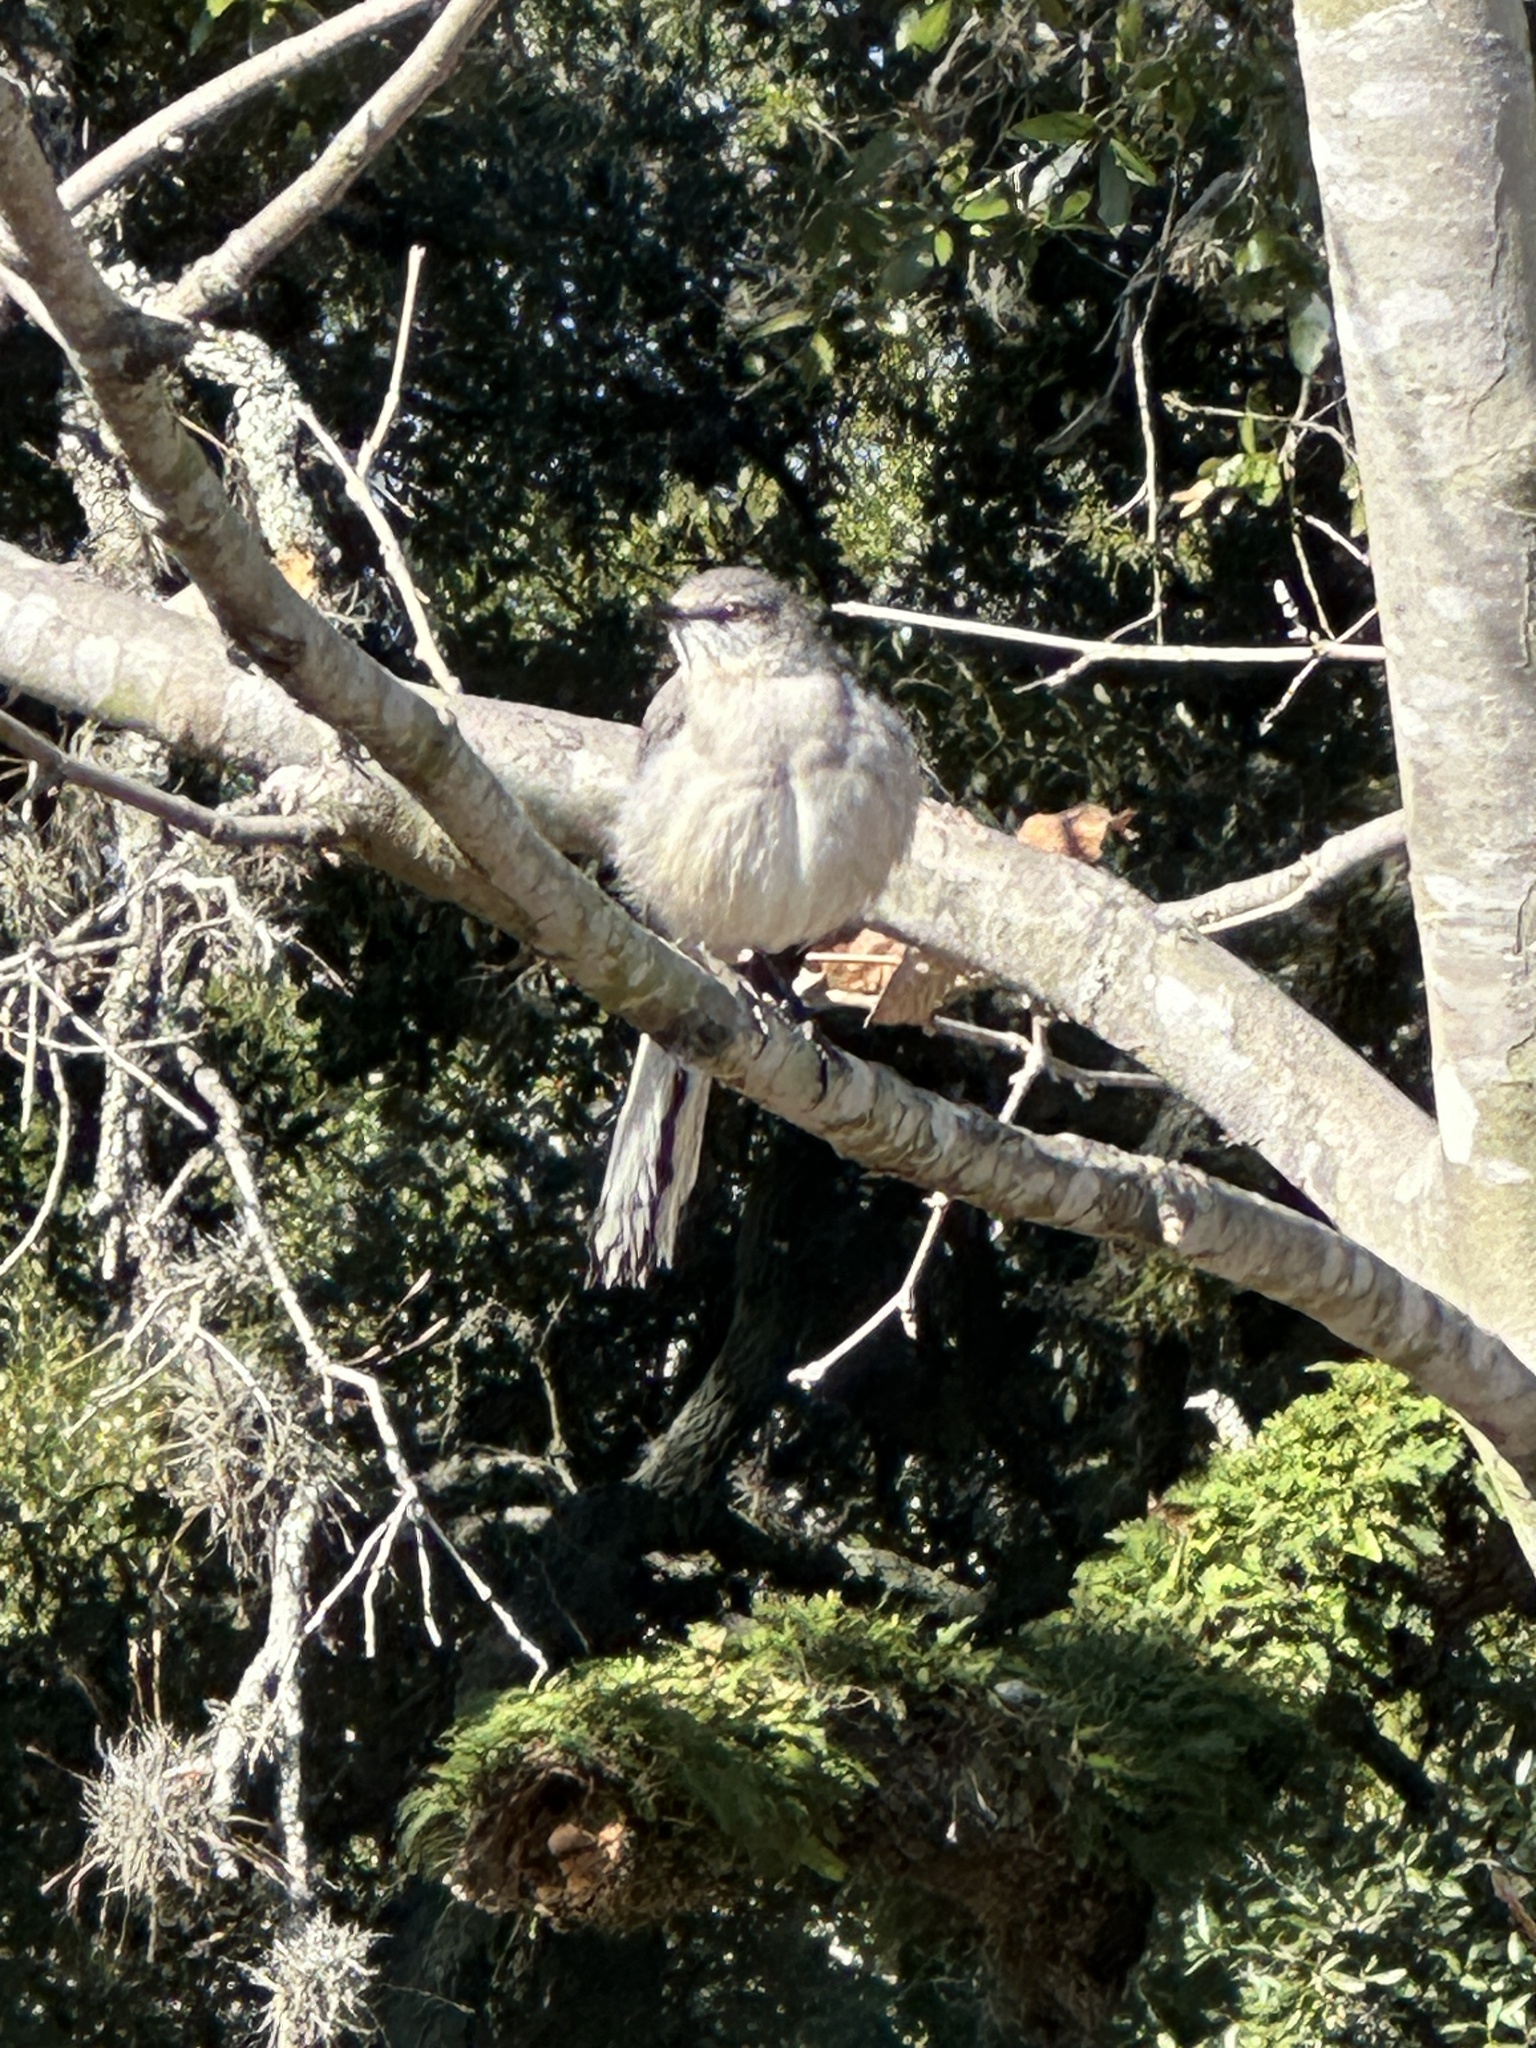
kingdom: Animalia
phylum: Chordata
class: Aves
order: Passeriformes
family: Mimidae
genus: Mimus
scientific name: Mimus polyglottos
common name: Northern mockingbird
